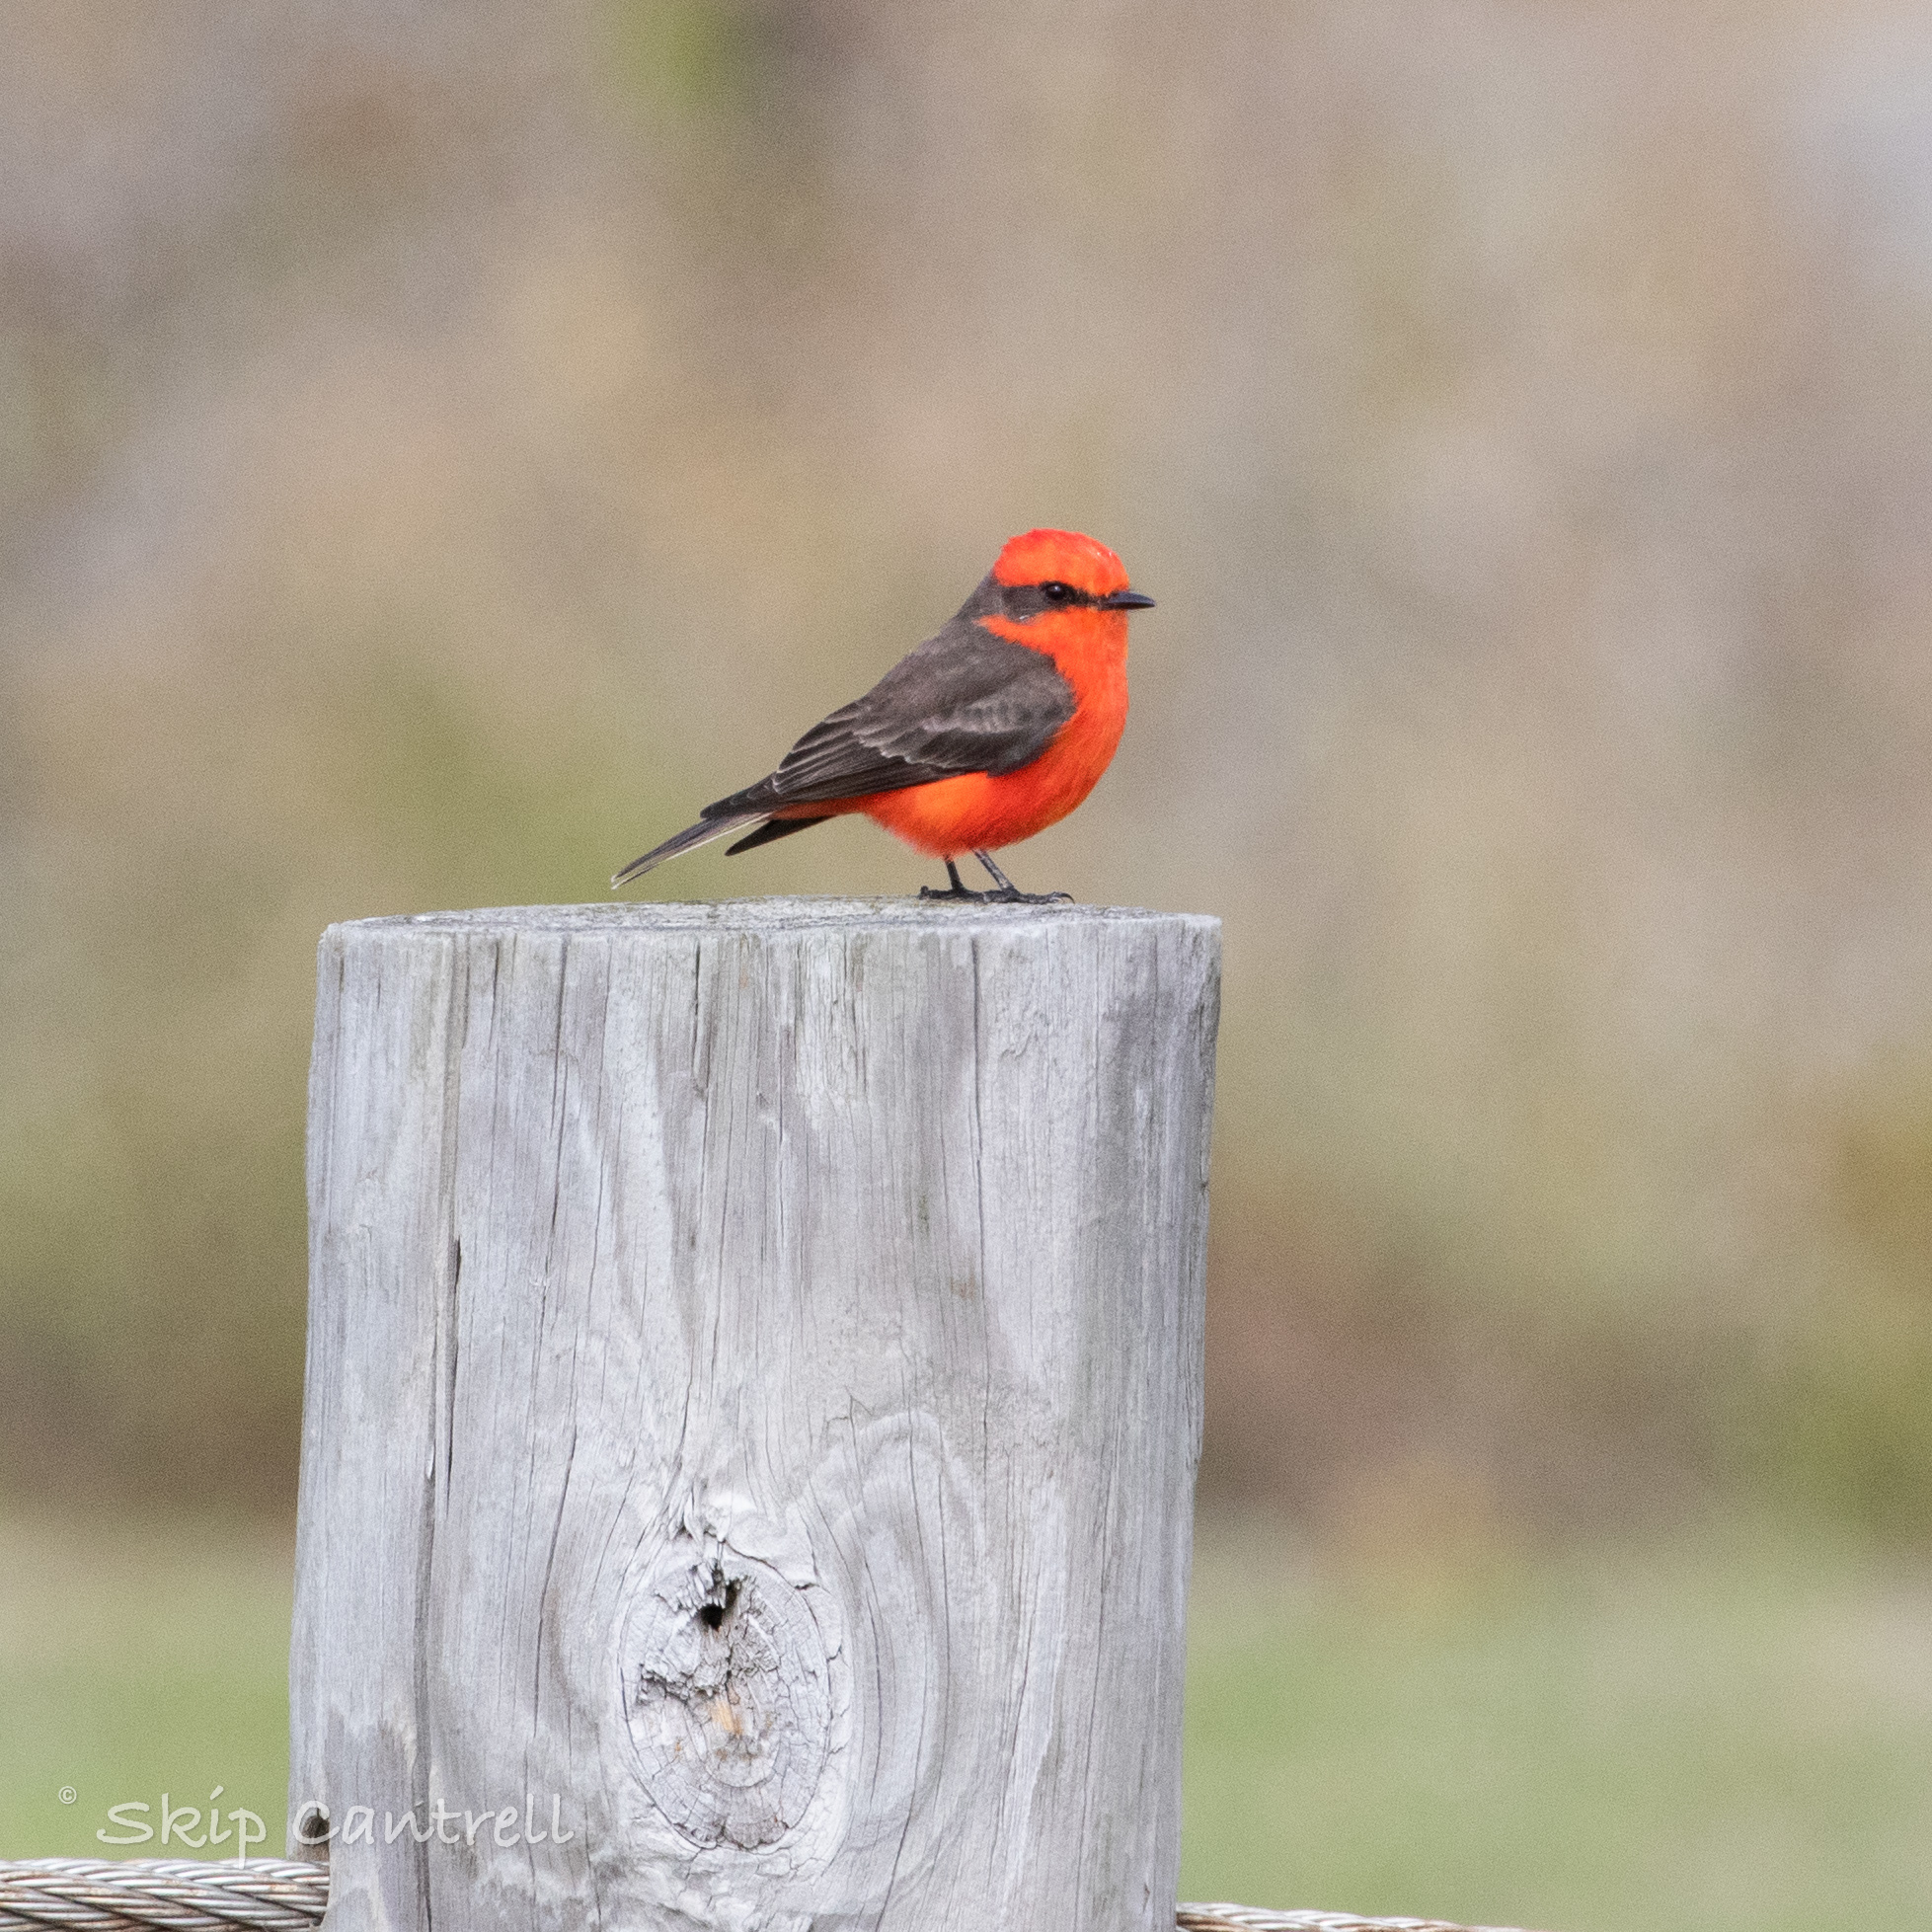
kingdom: Animalia
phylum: Chordata
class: Aves
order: Passeriformes
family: Tyrannidae
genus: Pyrocephalus
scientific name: Pyrocephalus rubinus
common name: Vermilion flycatcher
